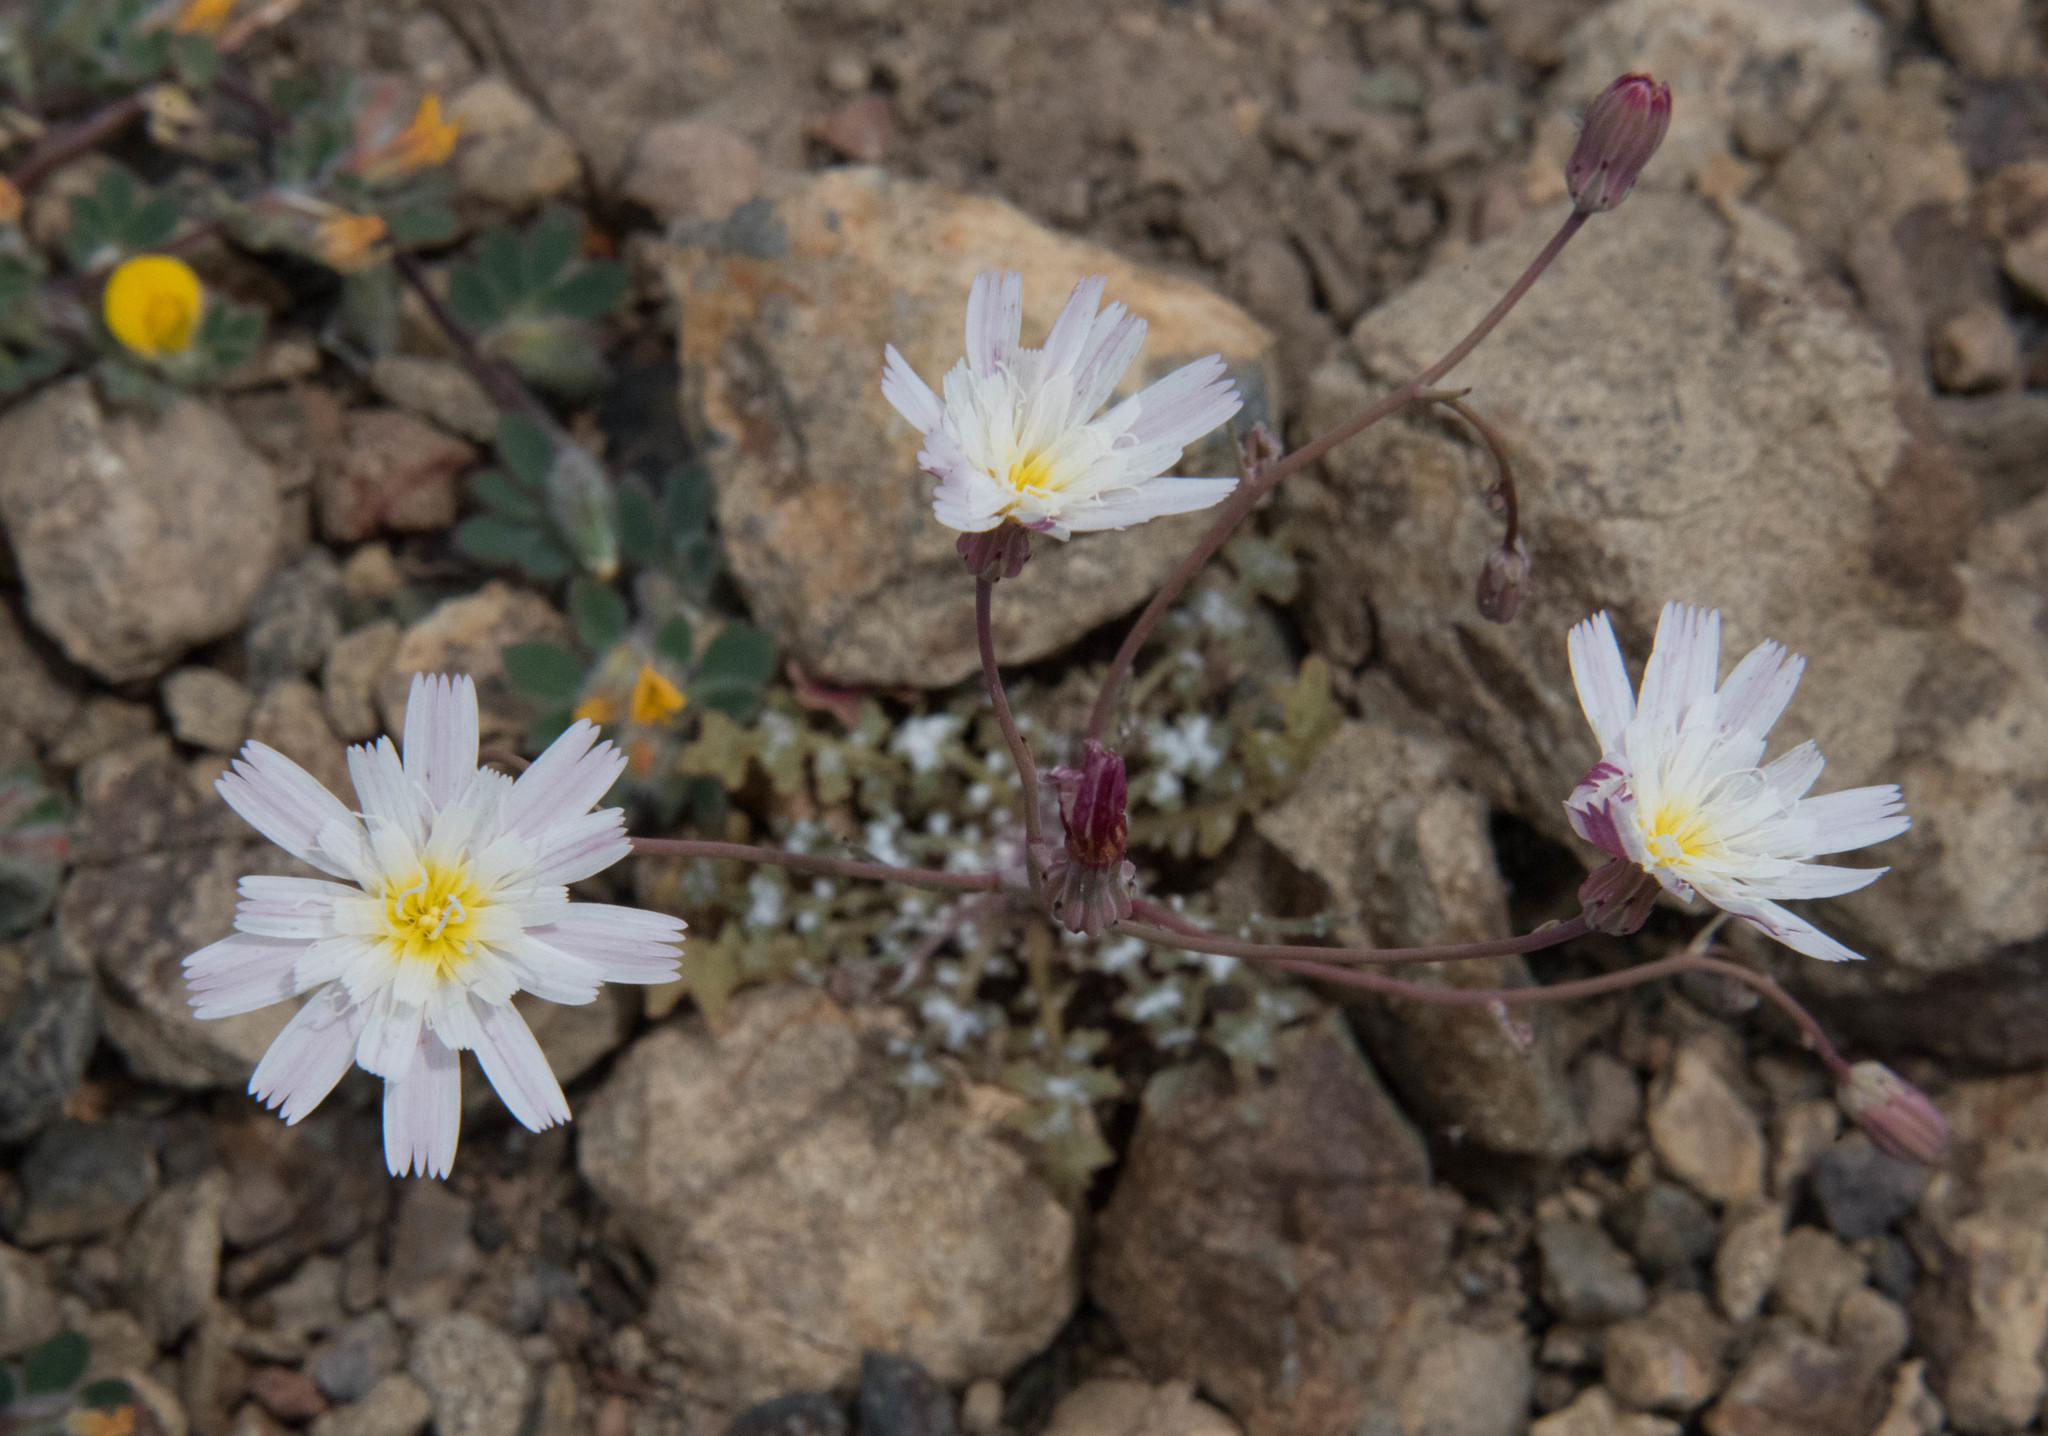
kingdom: Plantae
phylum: Tracheophyta
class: Magnoliopsida
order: Asterales
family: Asteraceae
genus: Malacothrix
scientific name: Malacothrix floccifera
